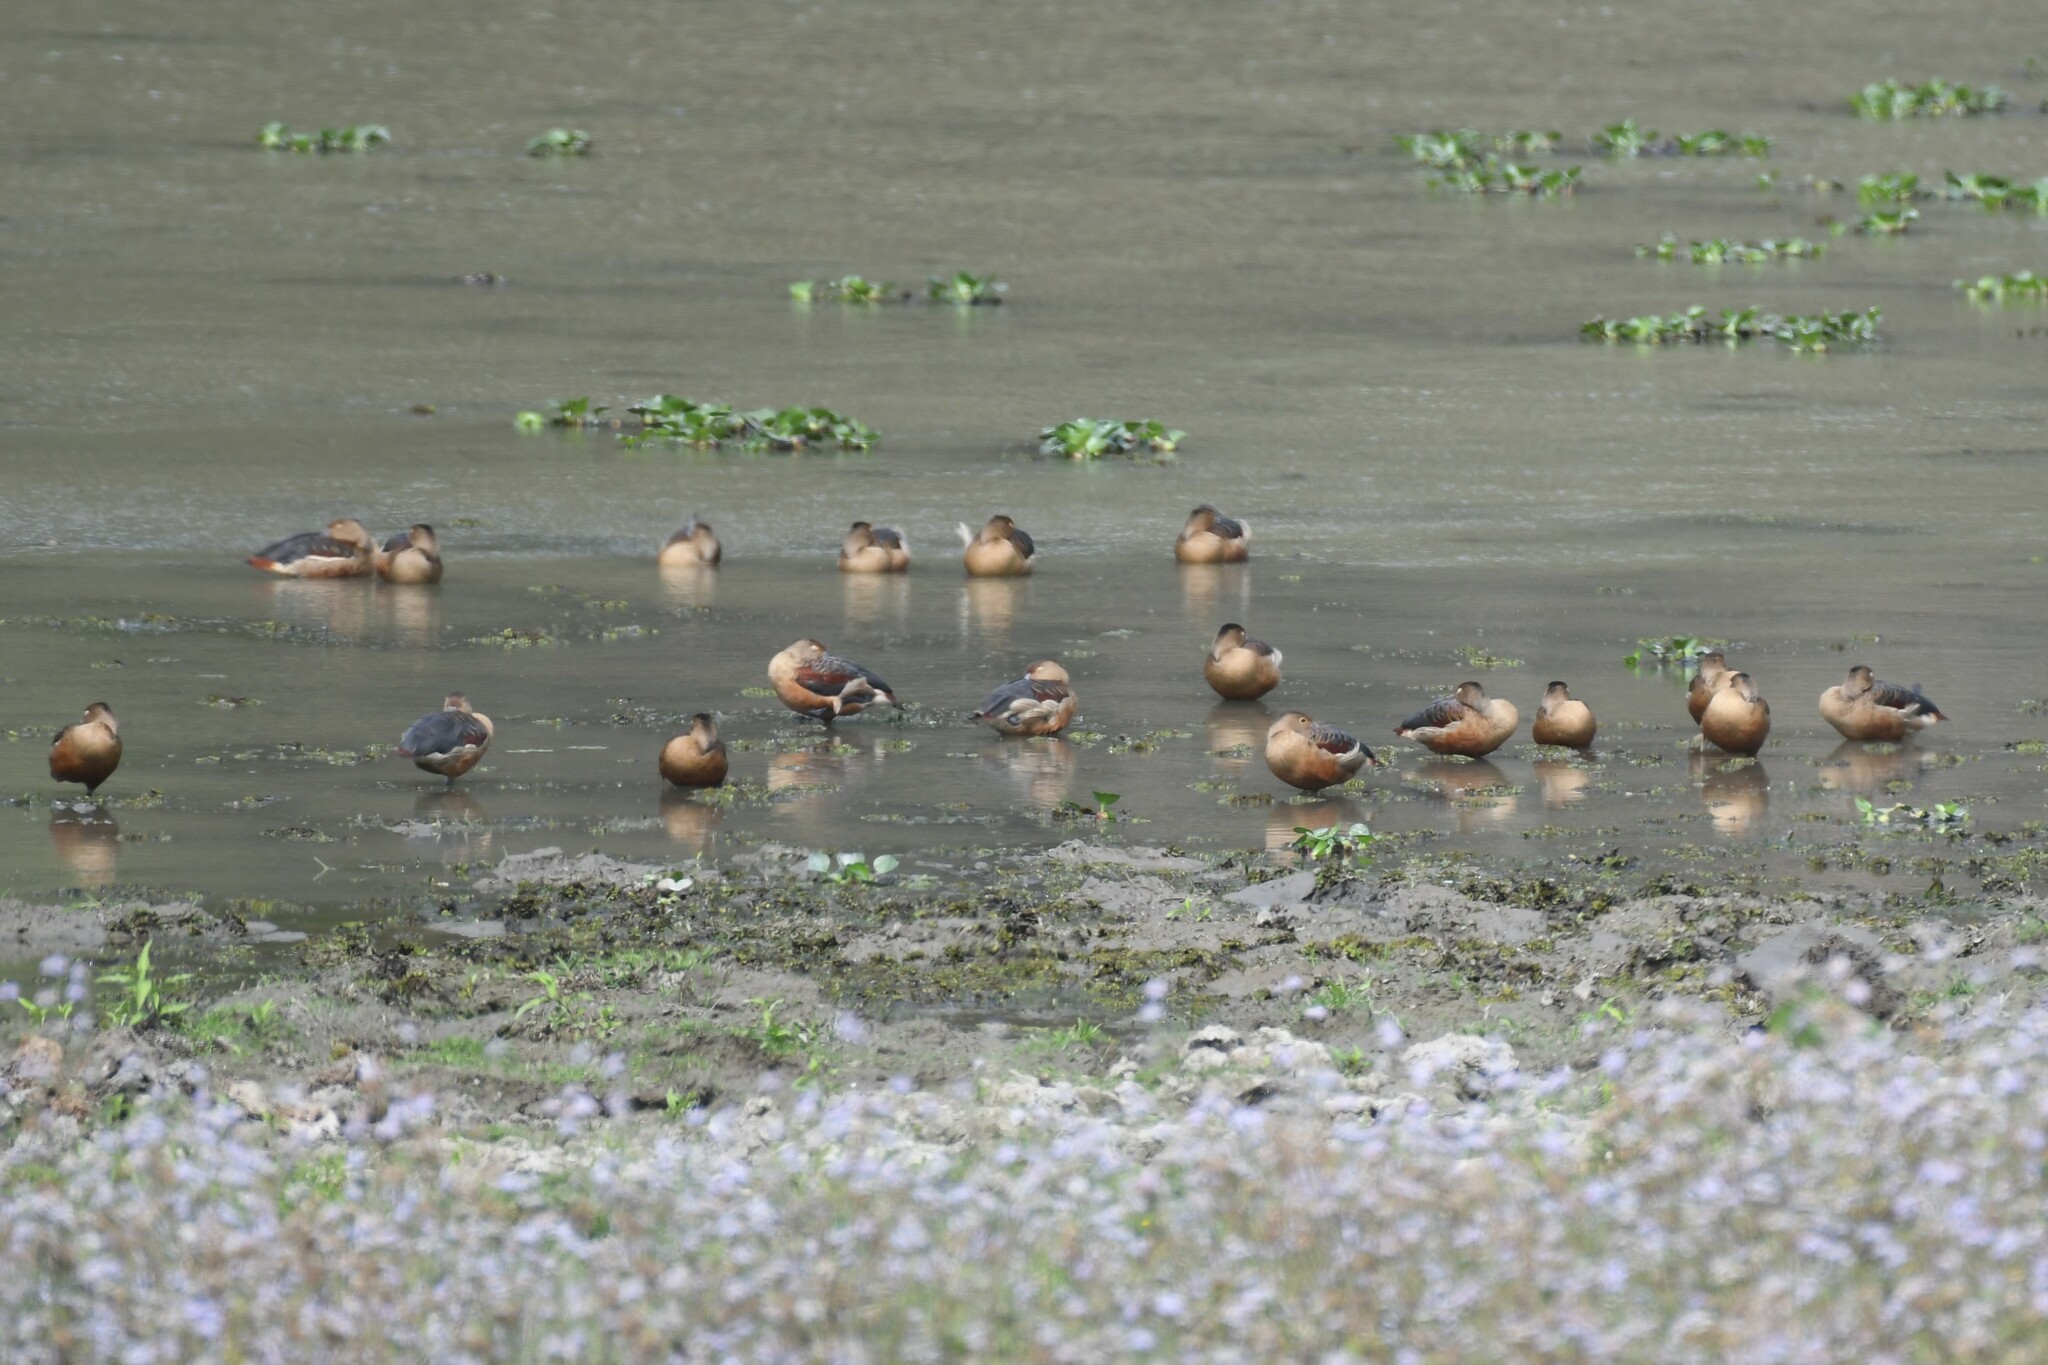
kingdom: Animalia
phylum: Chordata
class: Aves
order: Anseriformes
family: Anatidae
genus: Dendrocygna
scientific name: Dendrocygna javanica
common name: Lesser whistling-duck
